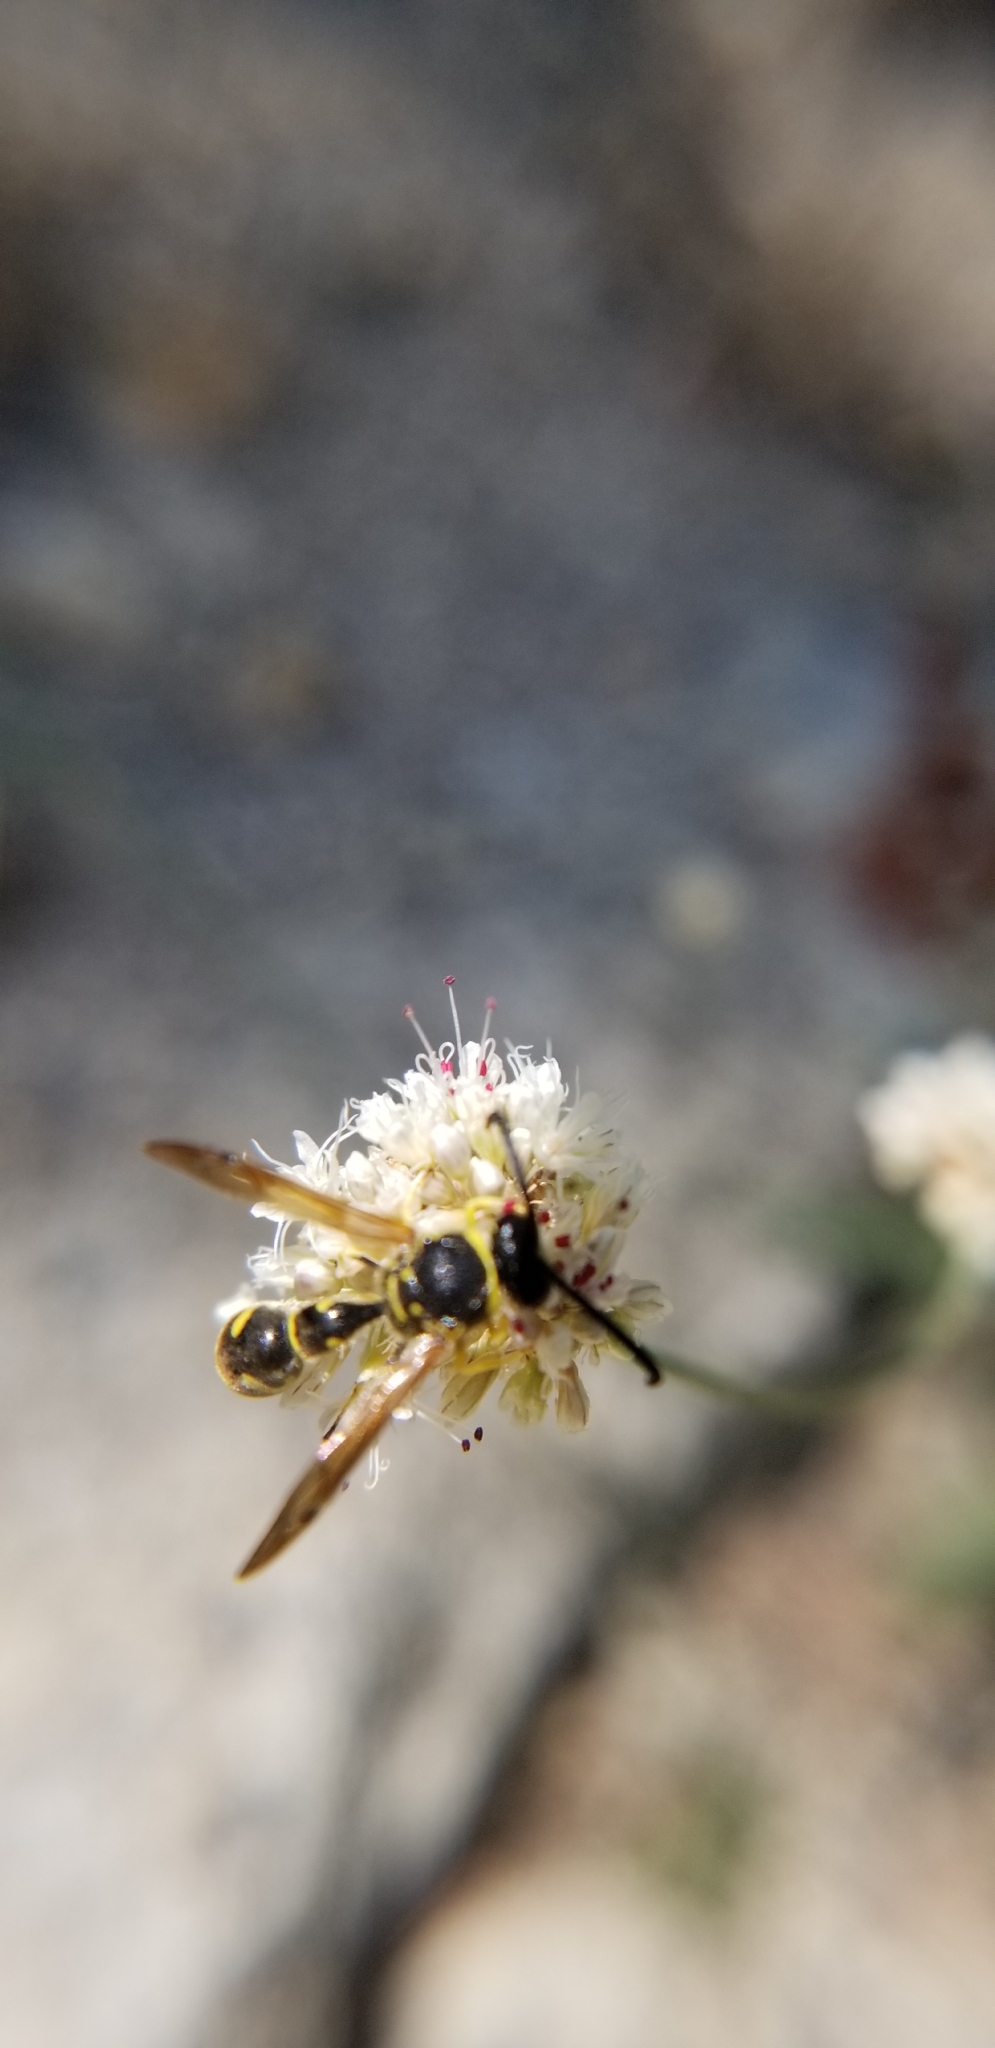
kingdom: Animalia
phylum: Arthropoda
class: Insecta
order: Hymenoptera
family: Vespidae
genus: Eumenes
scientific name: Eumenes verticalis
